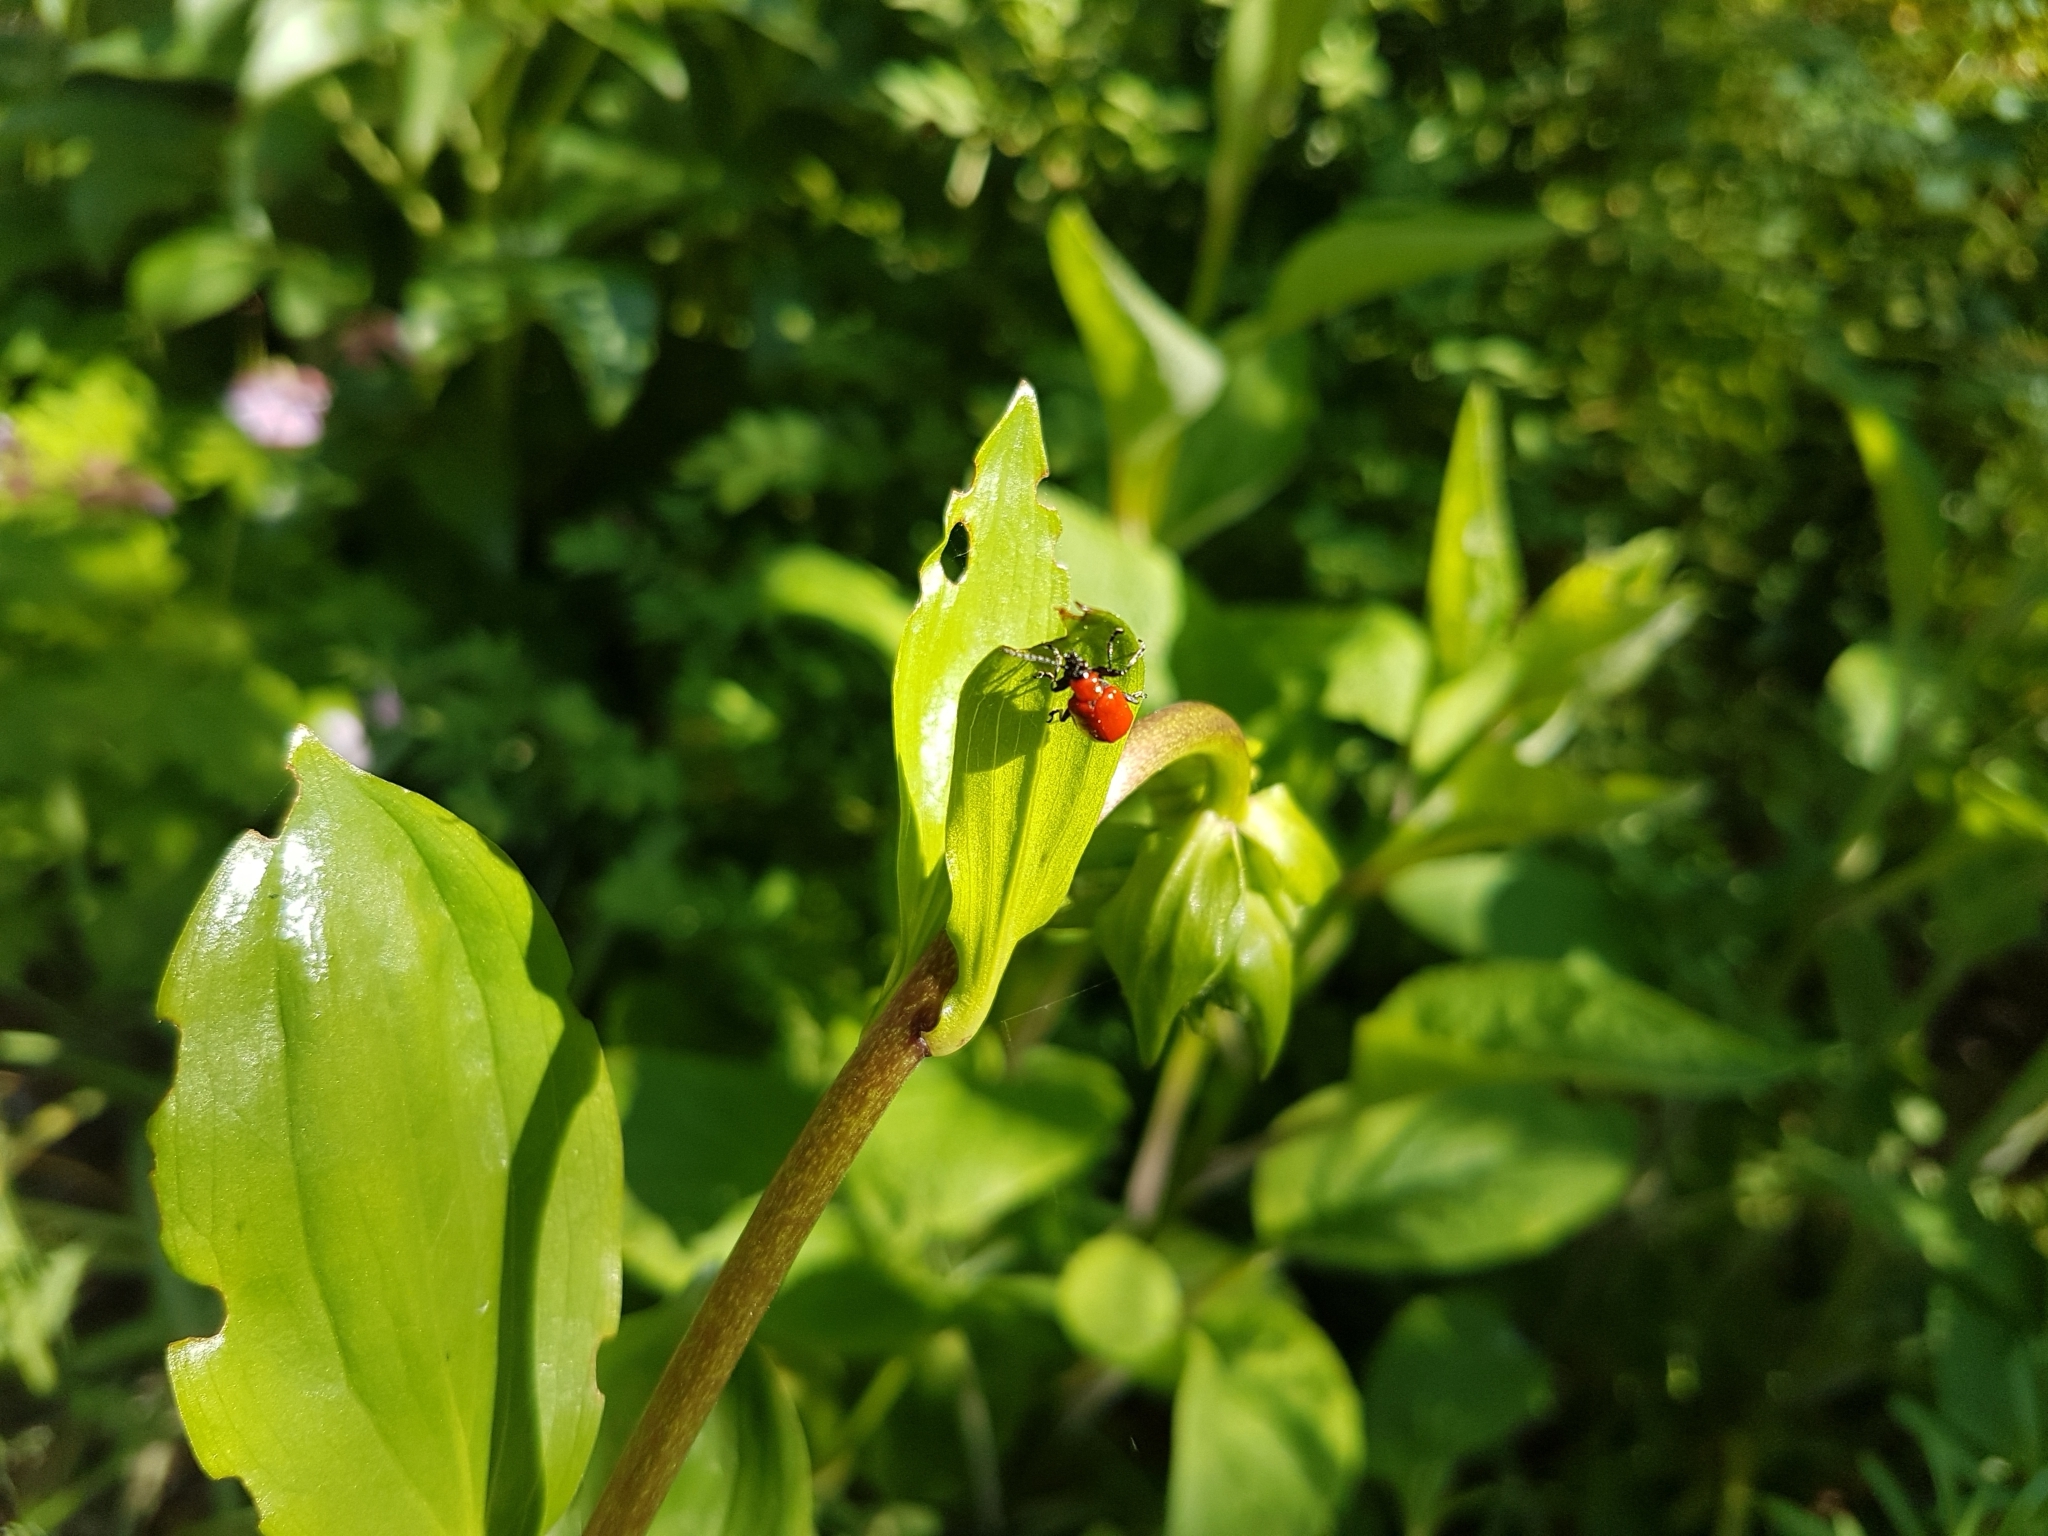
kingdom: Animalia
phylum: Arthropoda
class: Insecta
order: Coleoptera
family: Chrysomelidae
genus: Lilioceris
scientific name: Lilioceris lilii
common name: Lily beetle
